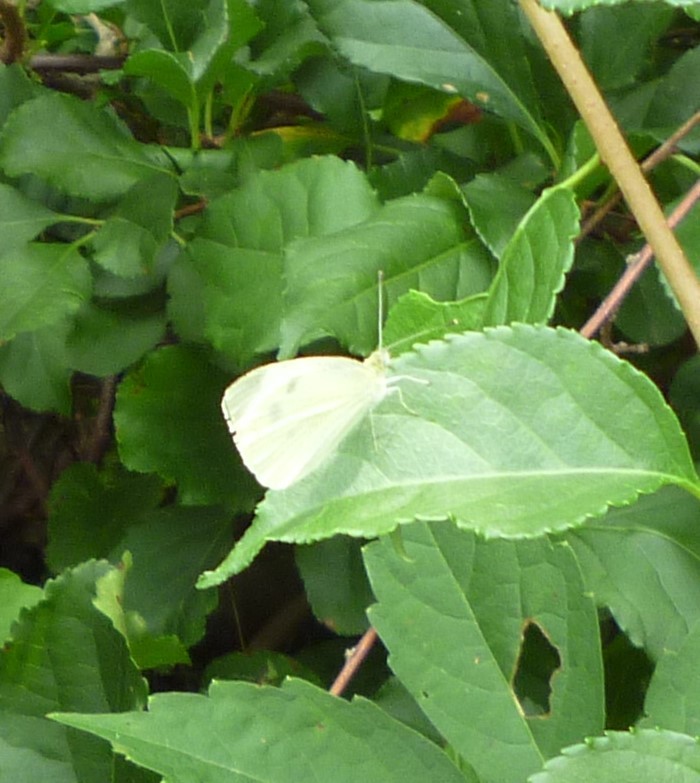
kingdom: Animalia
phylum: Arthropoda
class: Insecta
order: Lepidoptera
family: Pieridae
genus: Pieris
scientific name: Pieris rapae
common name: Small white
